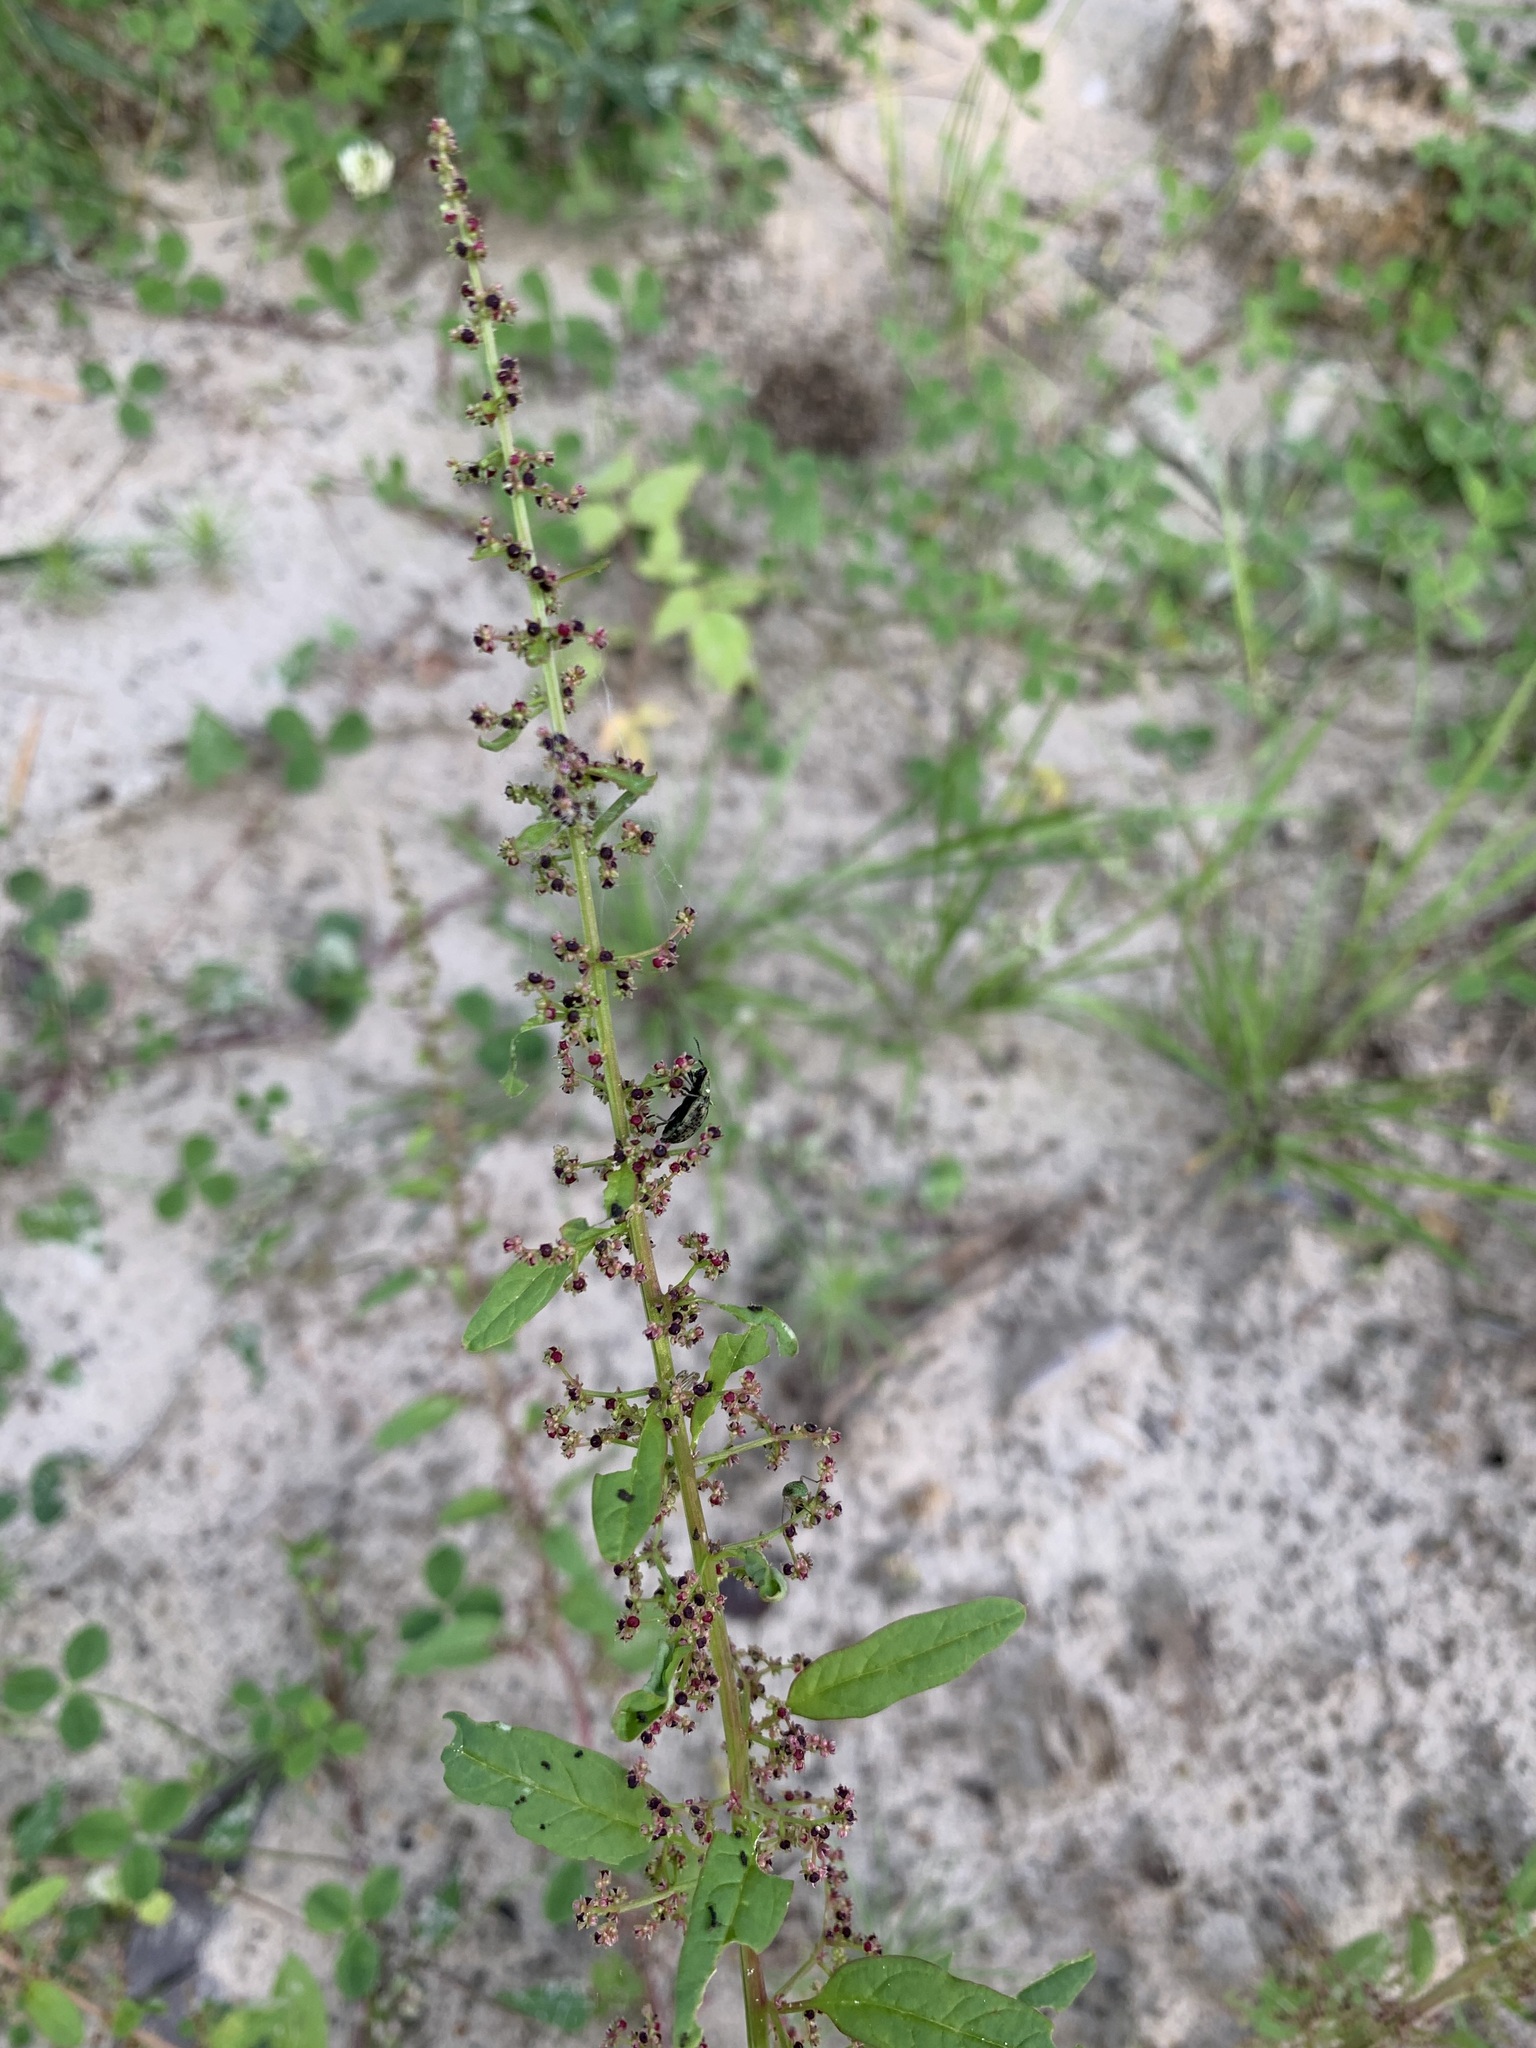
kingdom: Plantae
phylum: Tracheophyta
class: Magnoliopsida
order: Caryophyllales
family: Amaranthaceae
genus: Lipandra
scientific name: Lipandra polysperma
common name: Many-seed goosefoot
